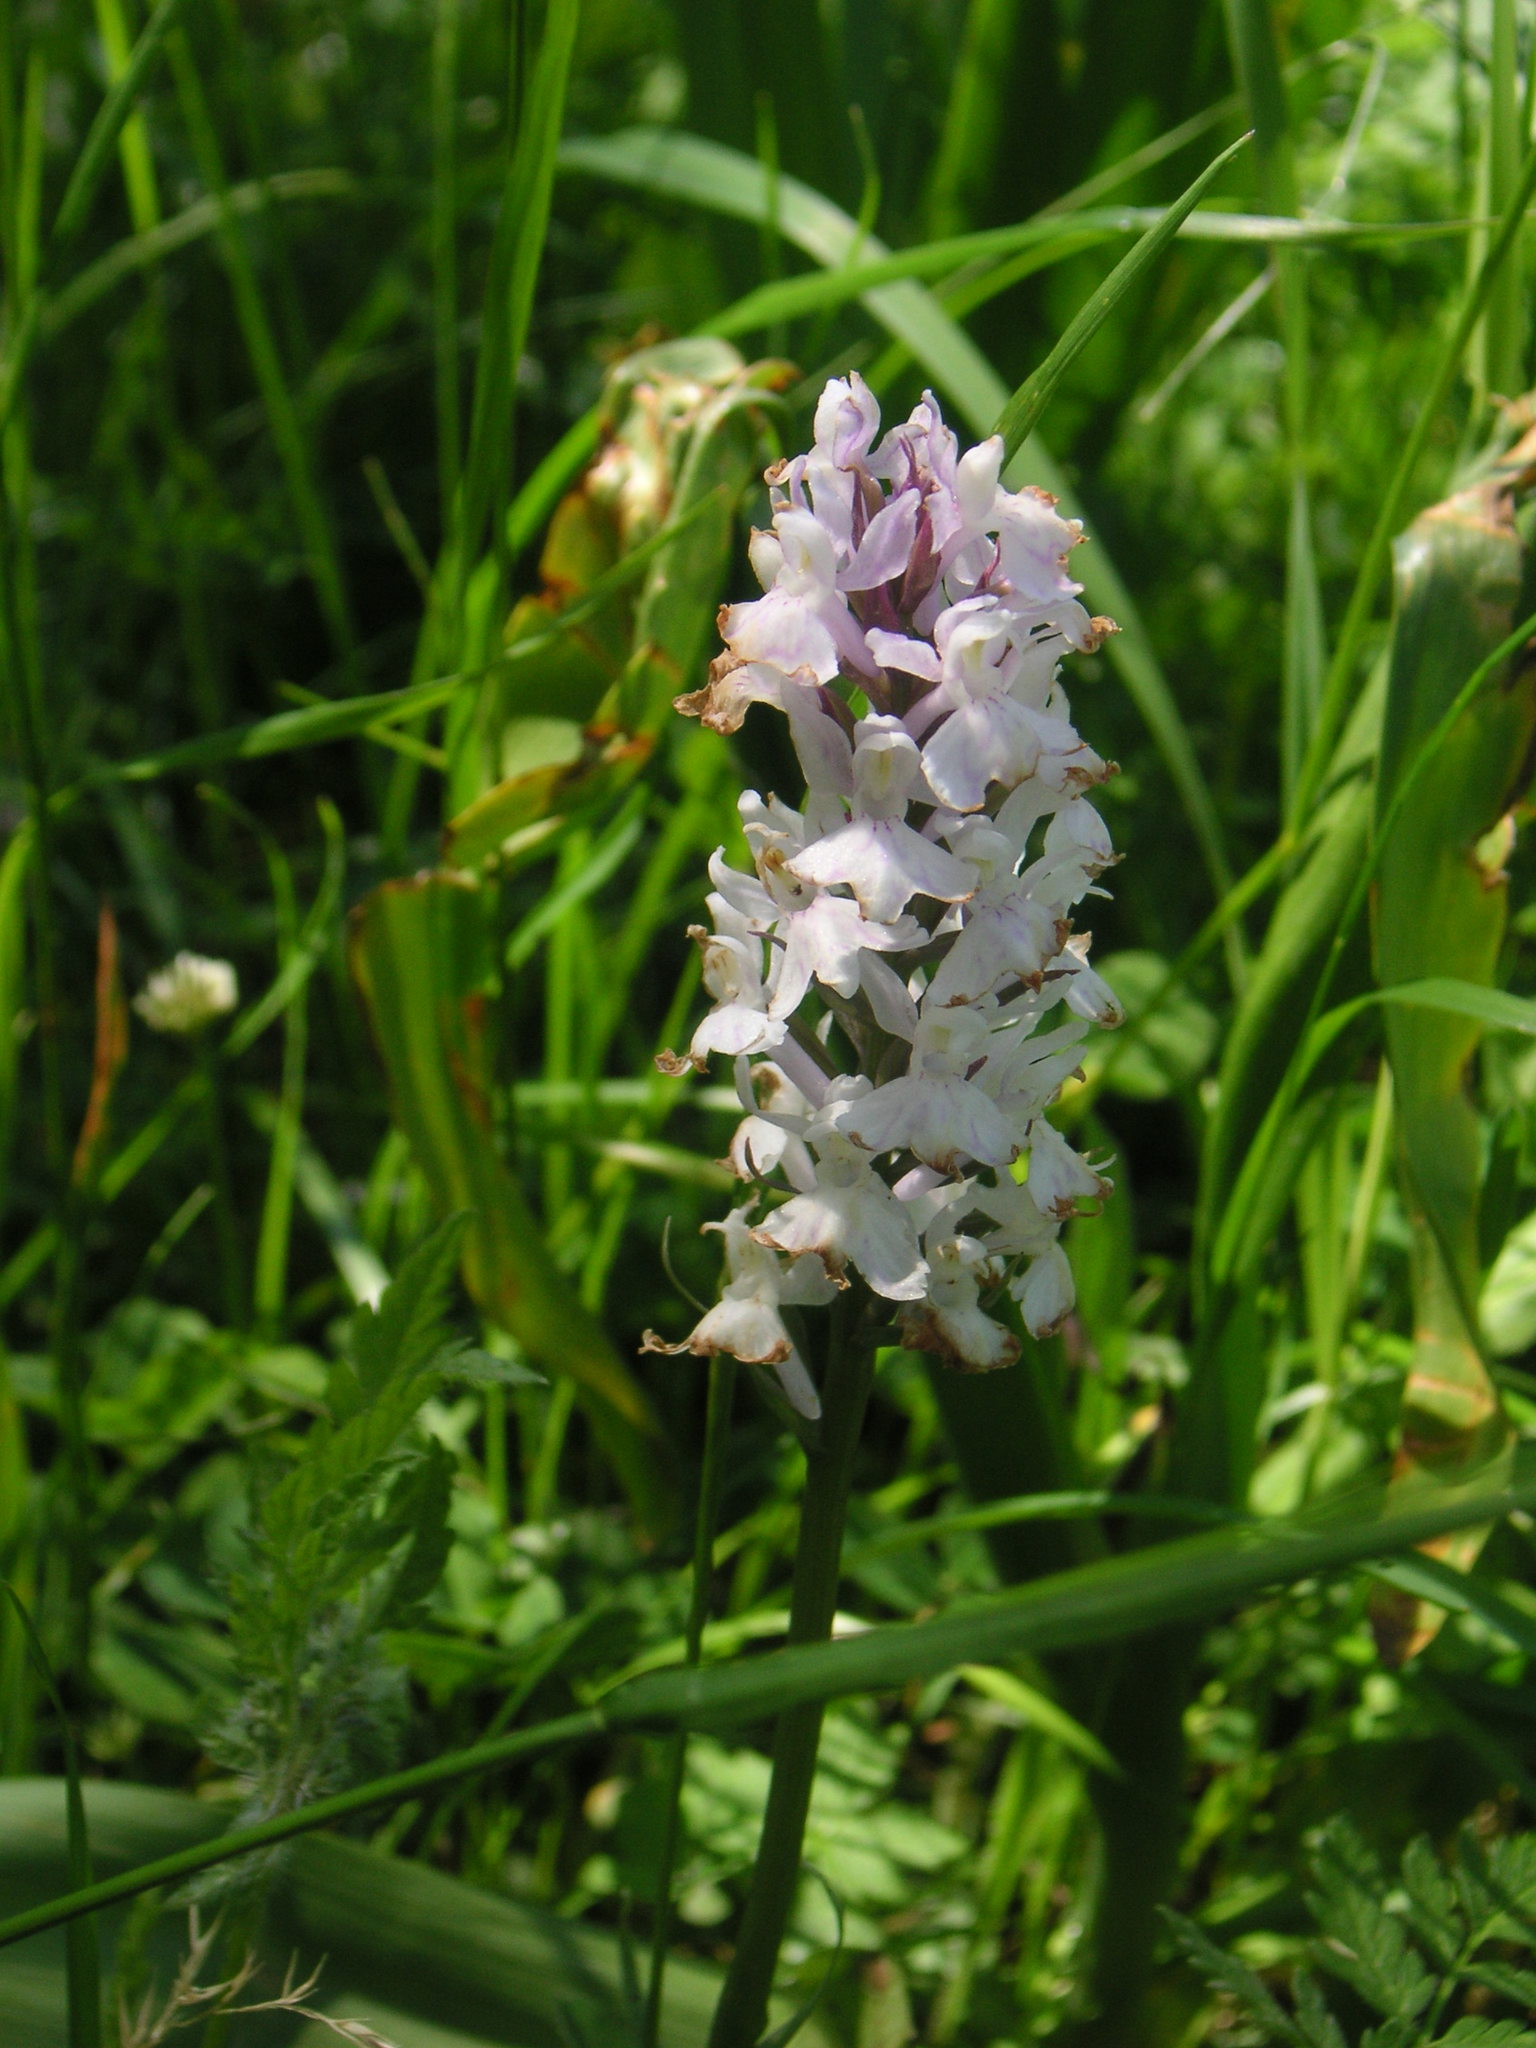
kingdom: Plantae
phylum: Tracheophyta
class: Liliopsida
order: Asparagales
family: Orchidaceae
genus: Dactylorhiza
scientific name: Dactylorhiza maculata
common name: Heath spotted-orchid
